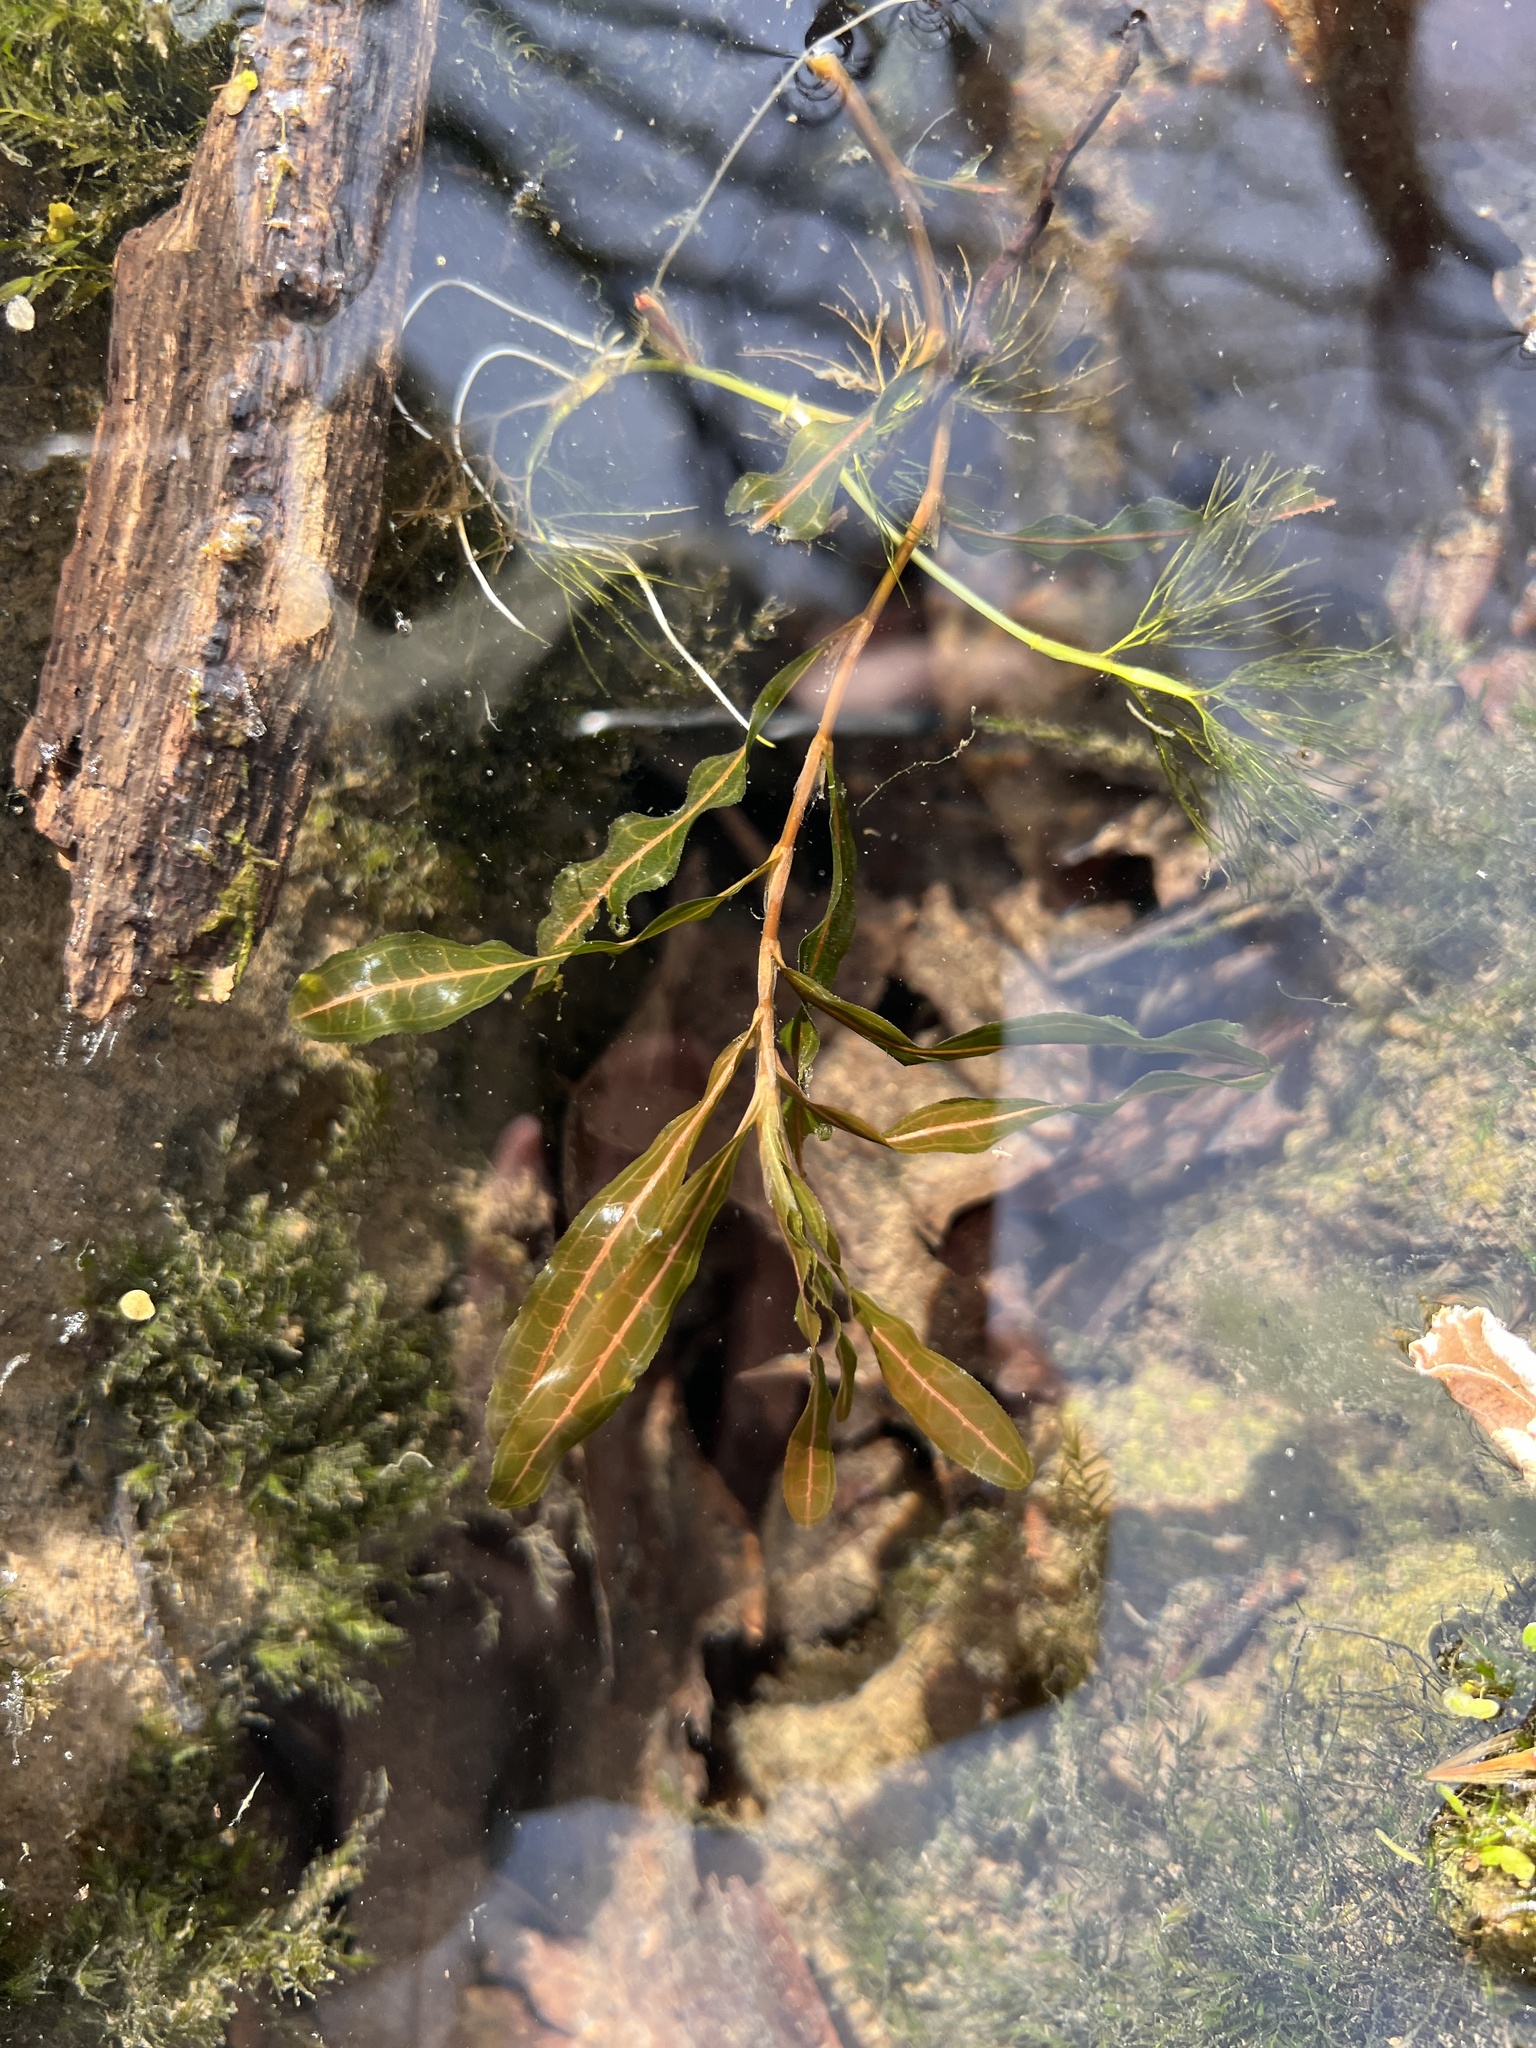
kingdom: Plantae
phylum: Tracheophyta
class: Liliopsida
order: Alismatales
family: Potamogetonaceae
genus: Potamogeton
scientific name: Potamogeton crispus
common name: Curled pondweed
